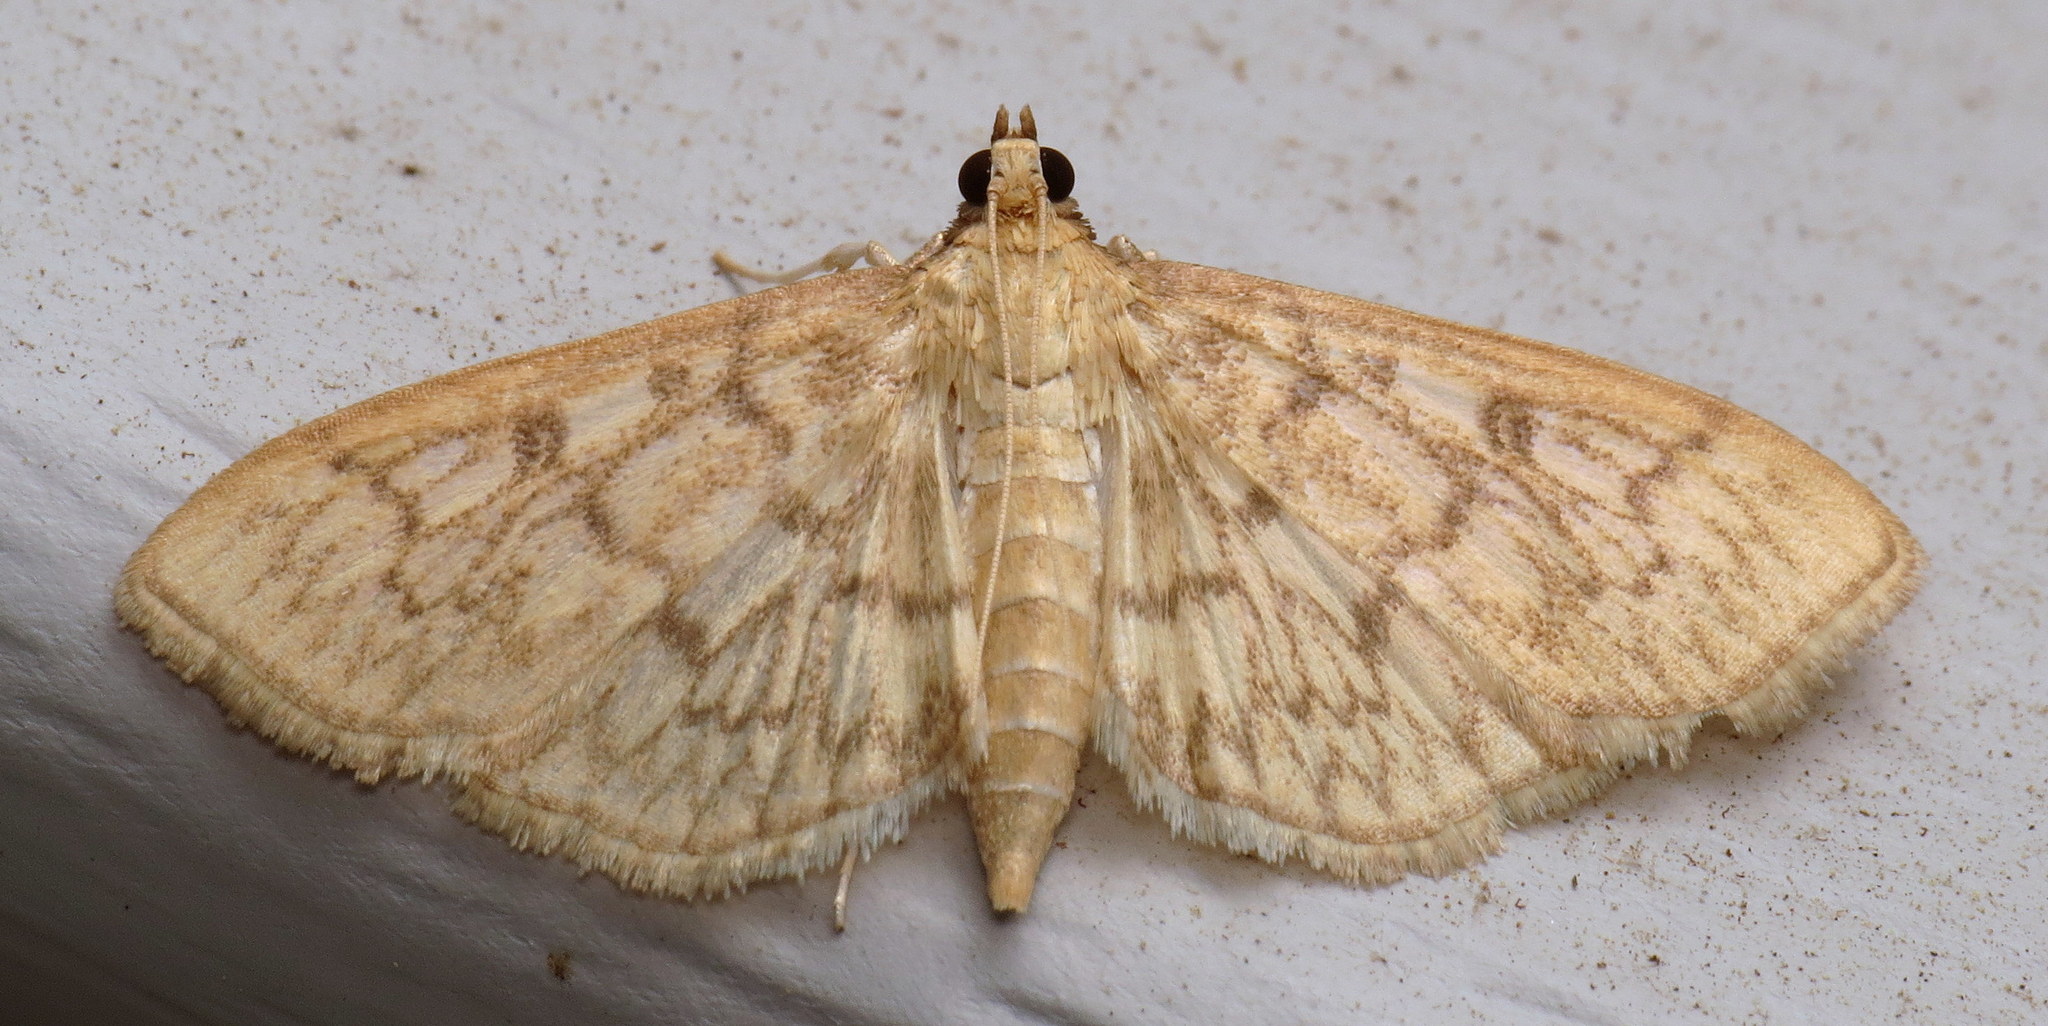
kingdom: Animalia
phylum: Arthropoda
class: Insecta
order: Lepidoptera
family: Crambidae
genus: Herpetogramma
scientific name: Herpetogramma pertextalis
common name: Bold-feathered grass moth
